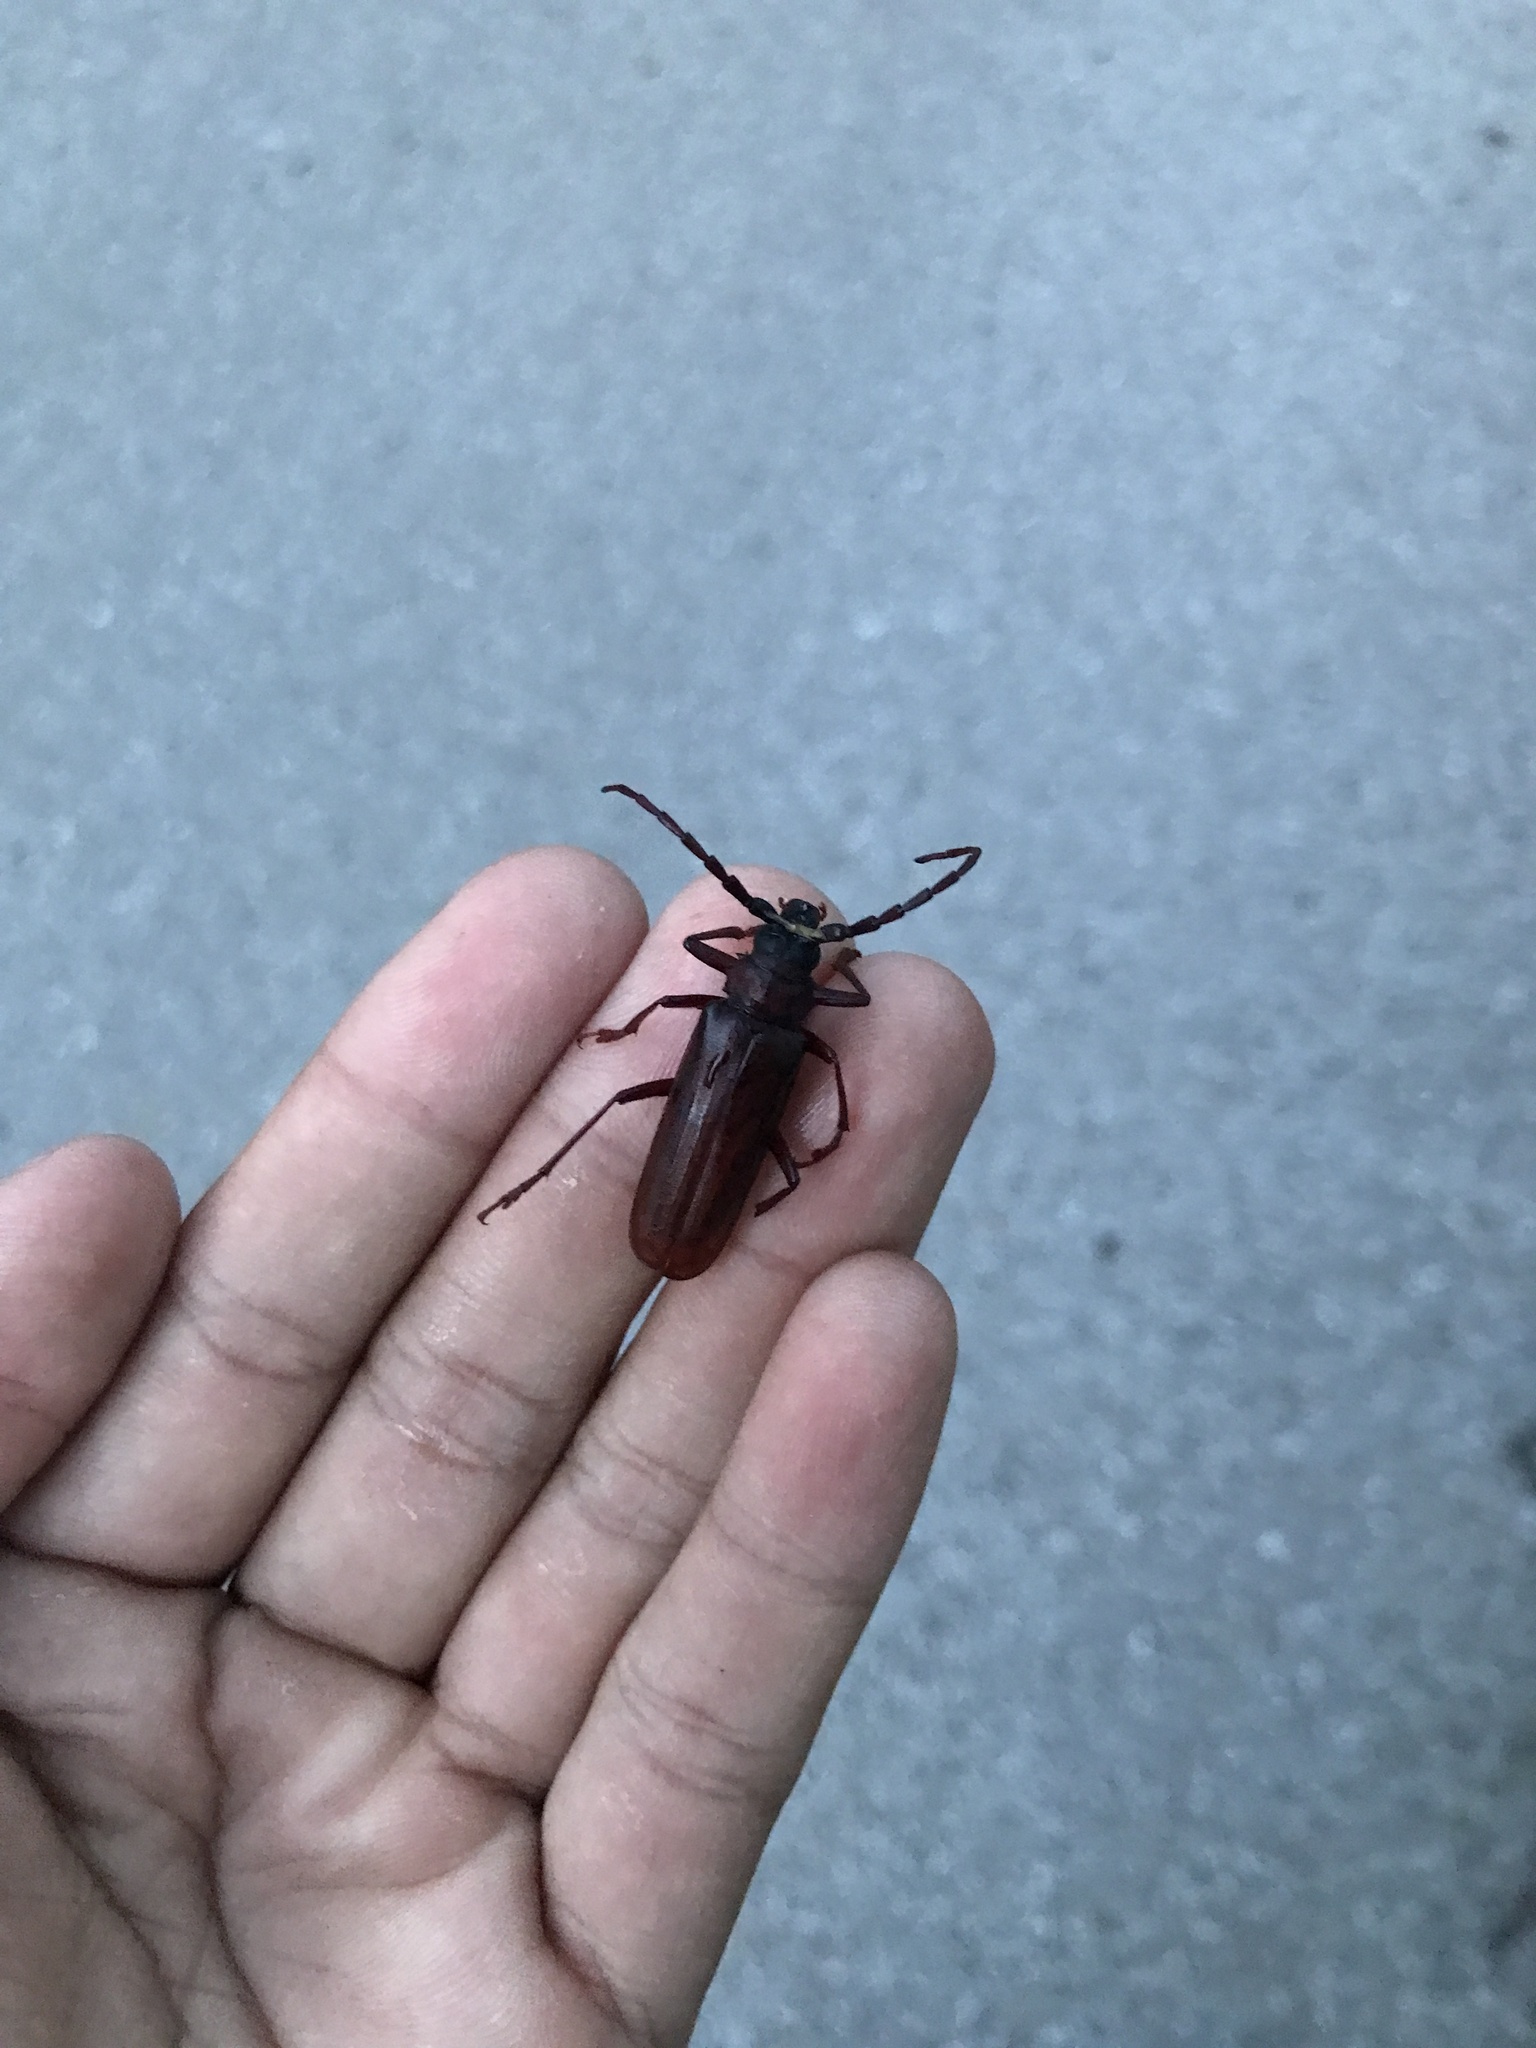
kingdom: Animalia
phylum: Arthropoda
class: Insecta
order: Coleoptera
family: Cerambycidae
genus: Orthosoma
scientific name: Orthosoma brunneum
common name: Brown prionid beetle
